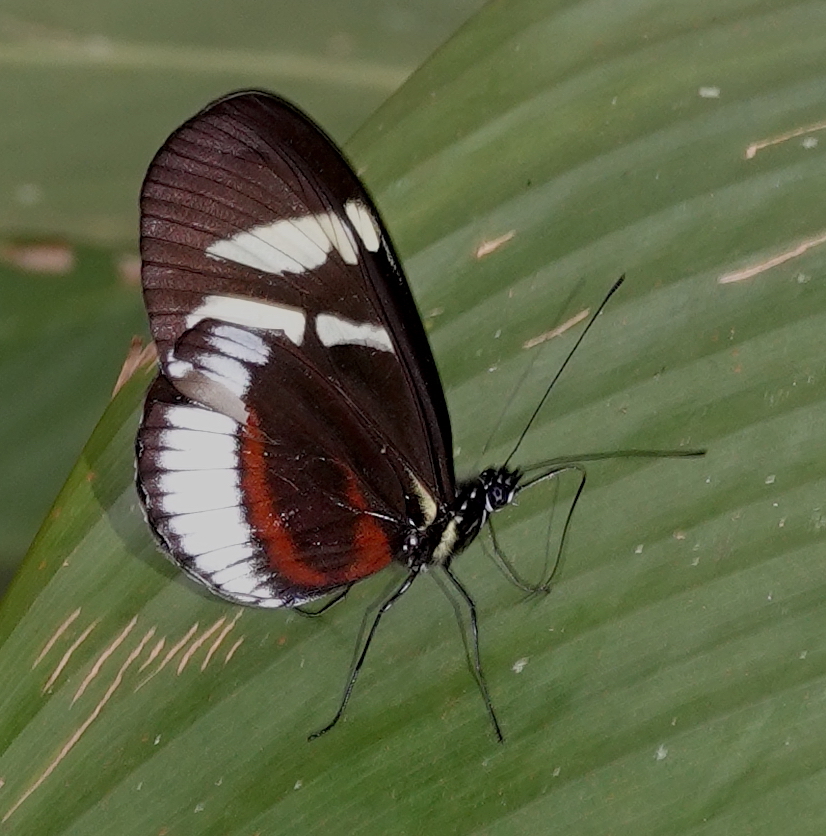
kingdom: Animalia
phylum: Arthropoda
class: Insecta
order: Lepidoptera
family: Nymphalidae
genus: Heliconius
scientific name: Heliconius cydno
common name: Cydno longwing
